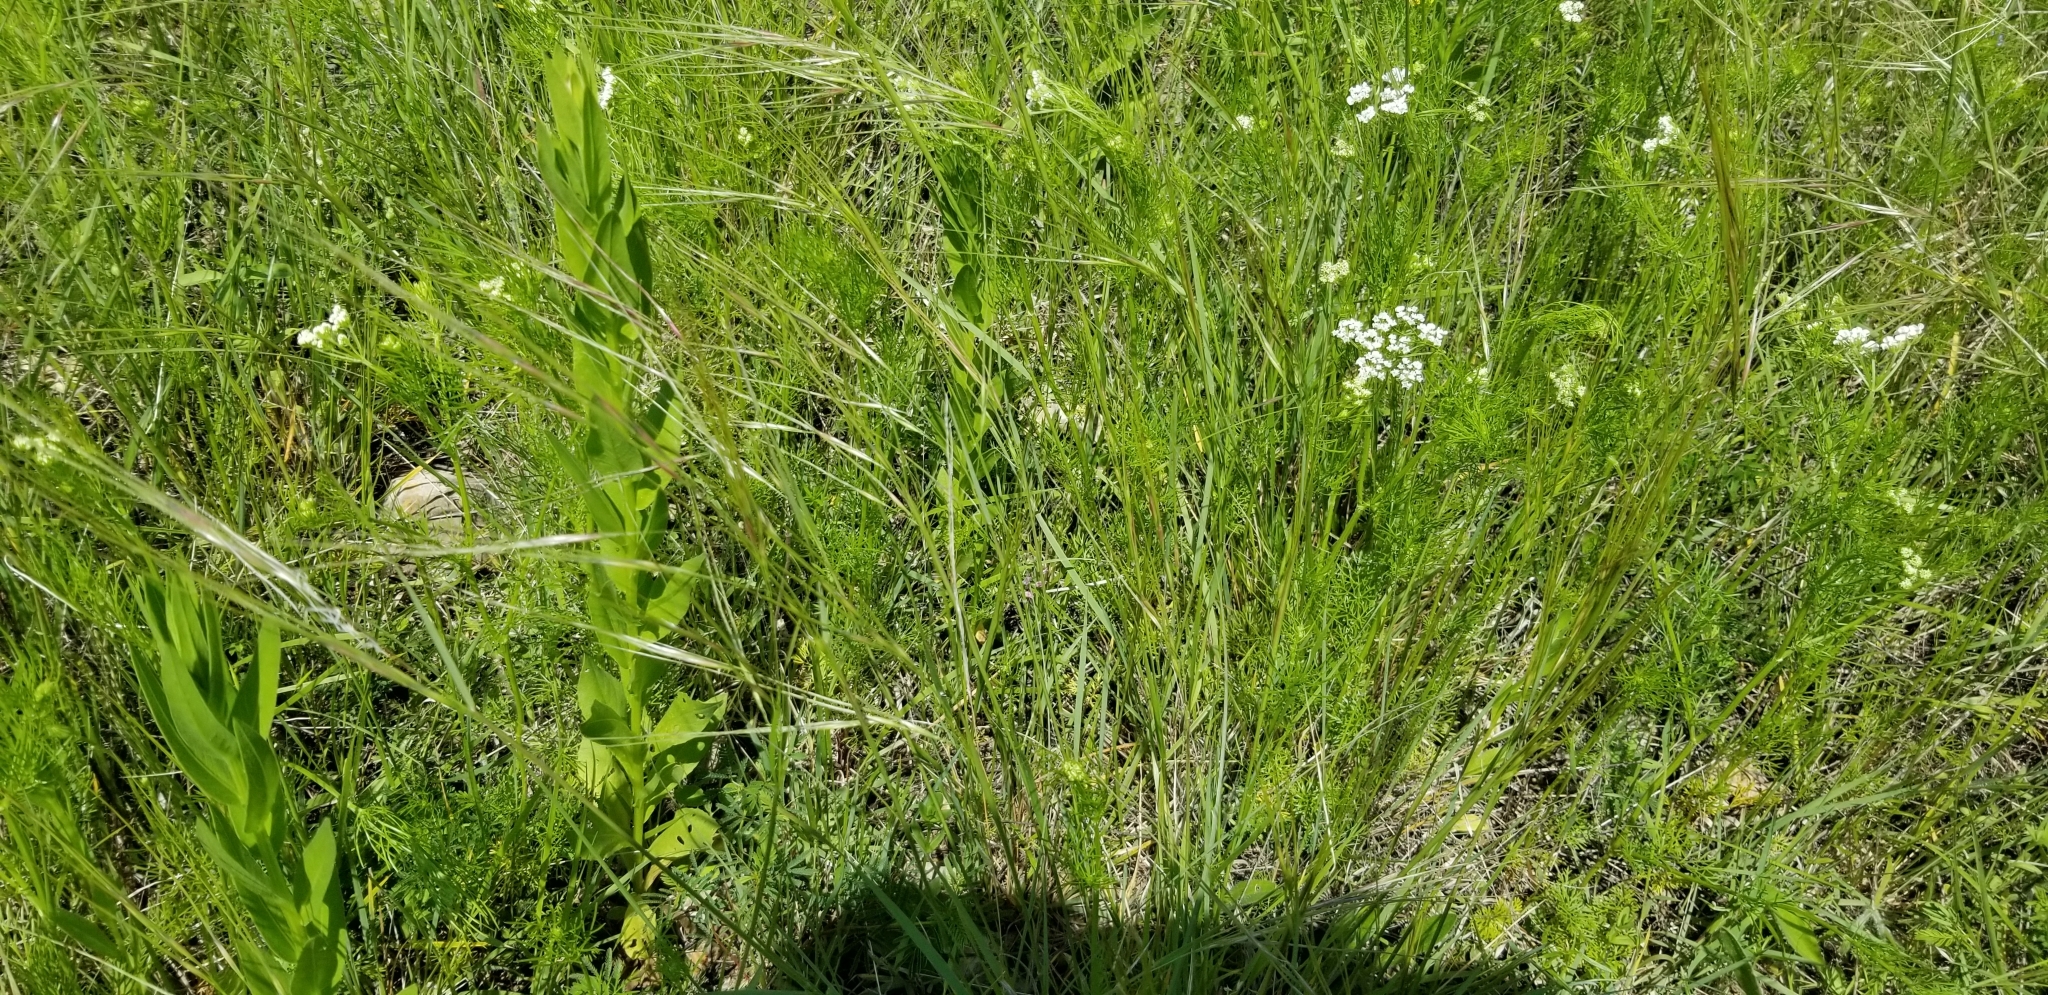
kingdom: Plantae
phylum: Tracheophyta
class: Liliopsida
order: Poales
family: Poaceae
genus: Nassella
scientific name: Nassella leucotricha
